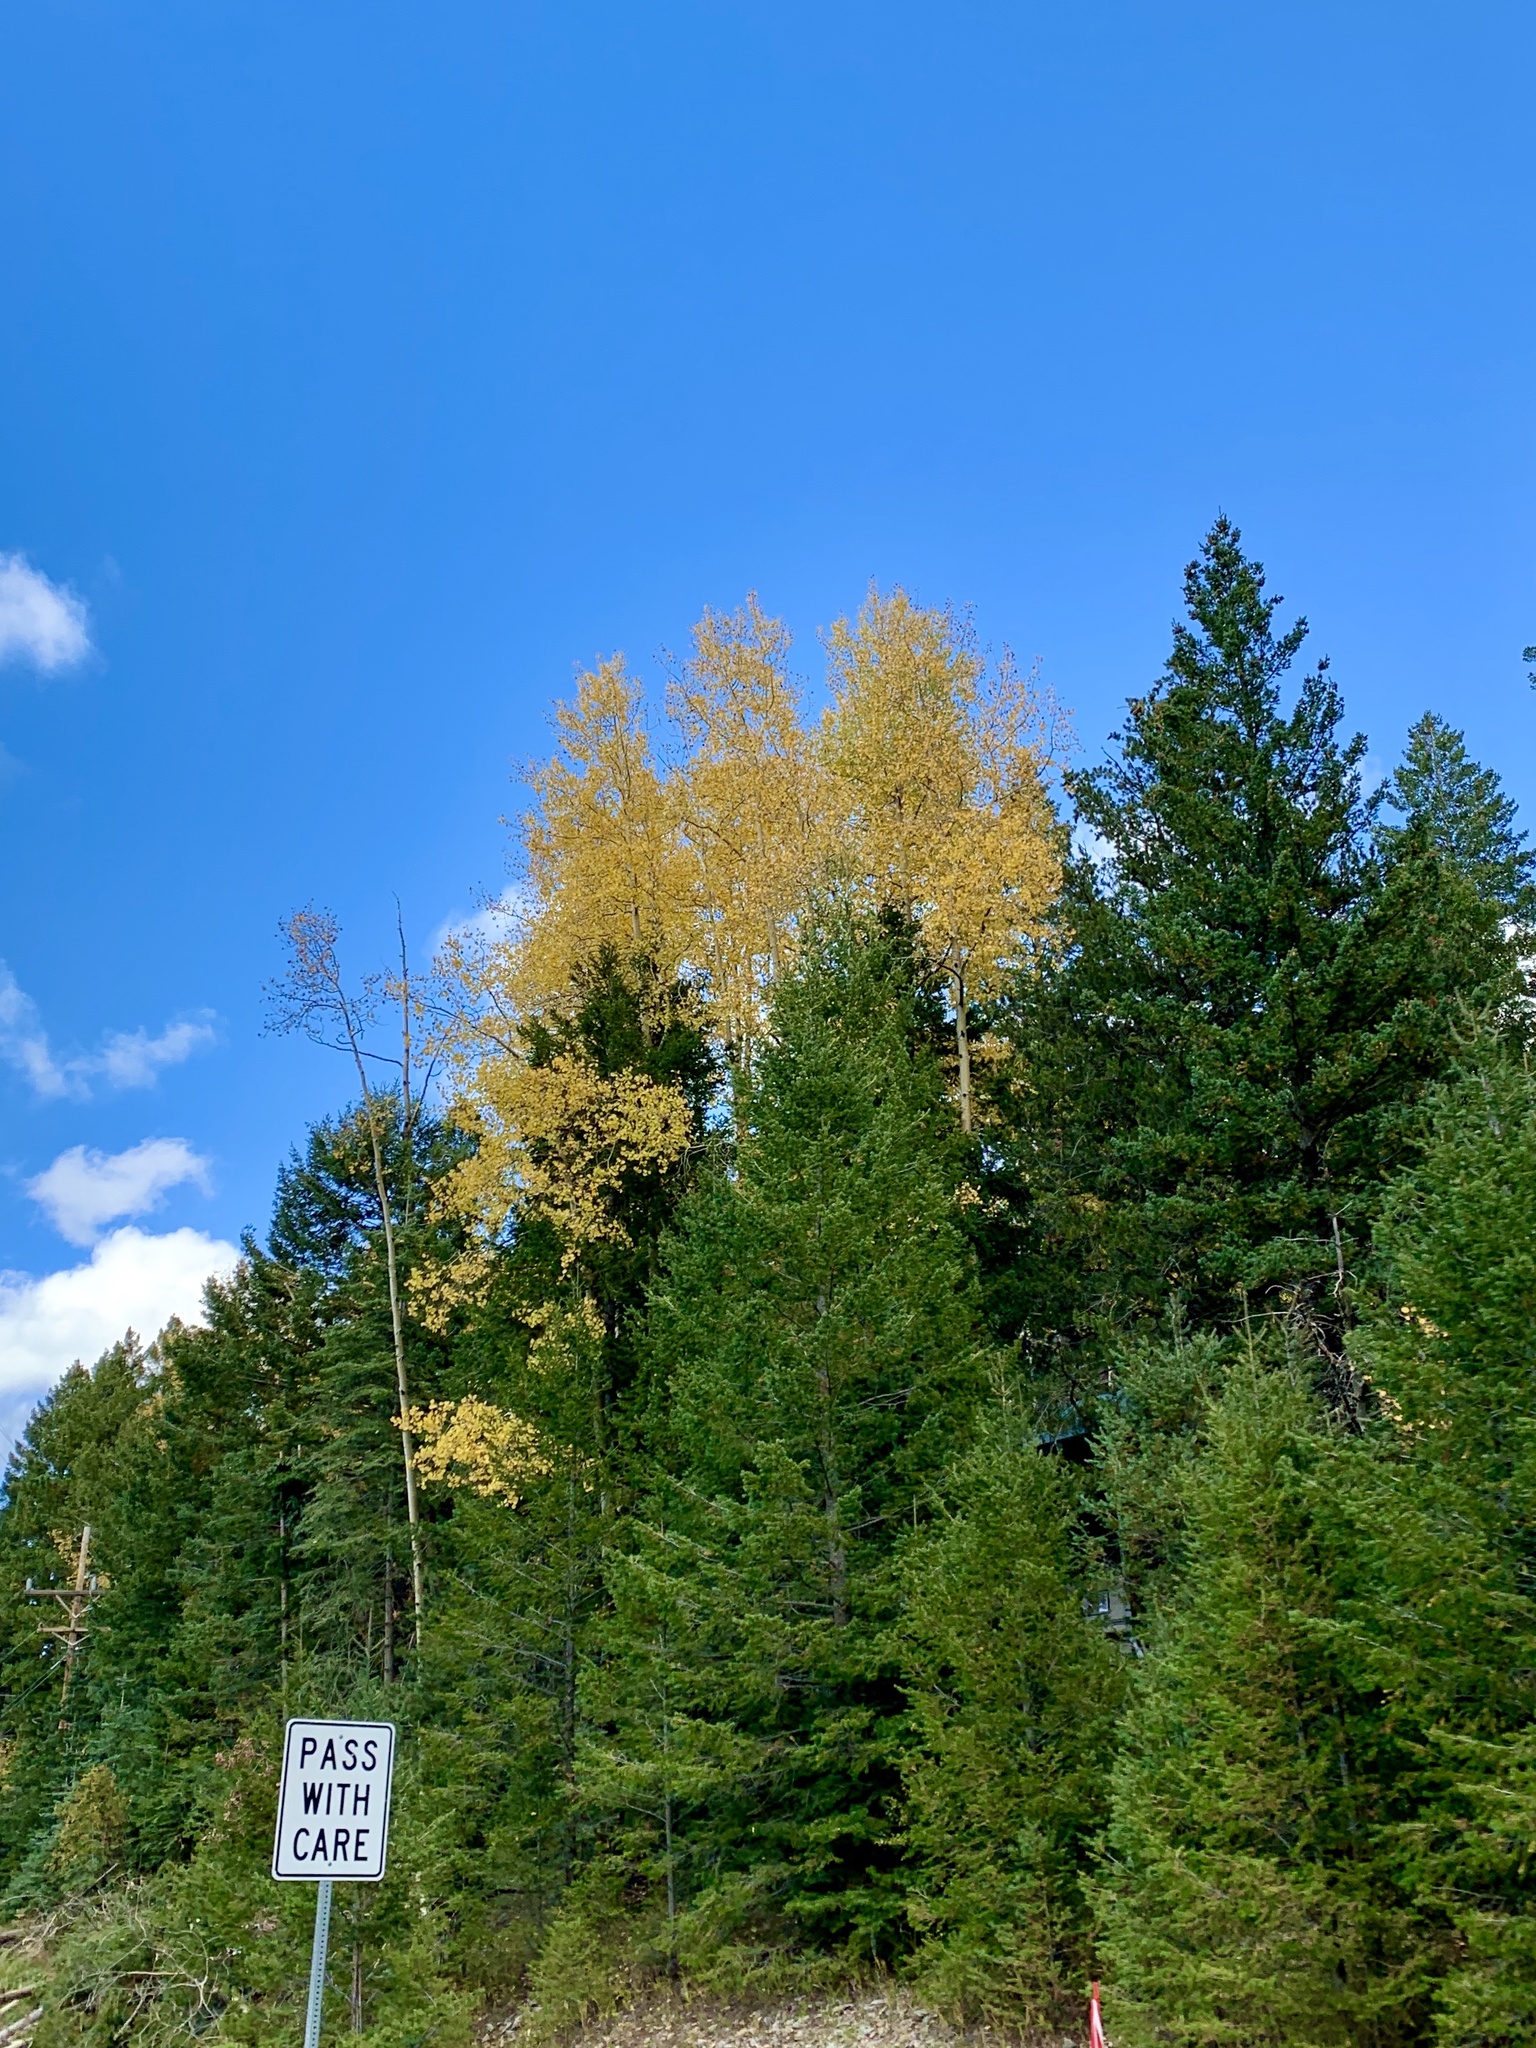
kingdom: Plantae
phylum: Tracheophyta
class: Magnoliopsida
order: Malpighiales
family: Salicaceae
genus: Populus
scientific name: Populus tremuloides
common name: Quaking aspen
